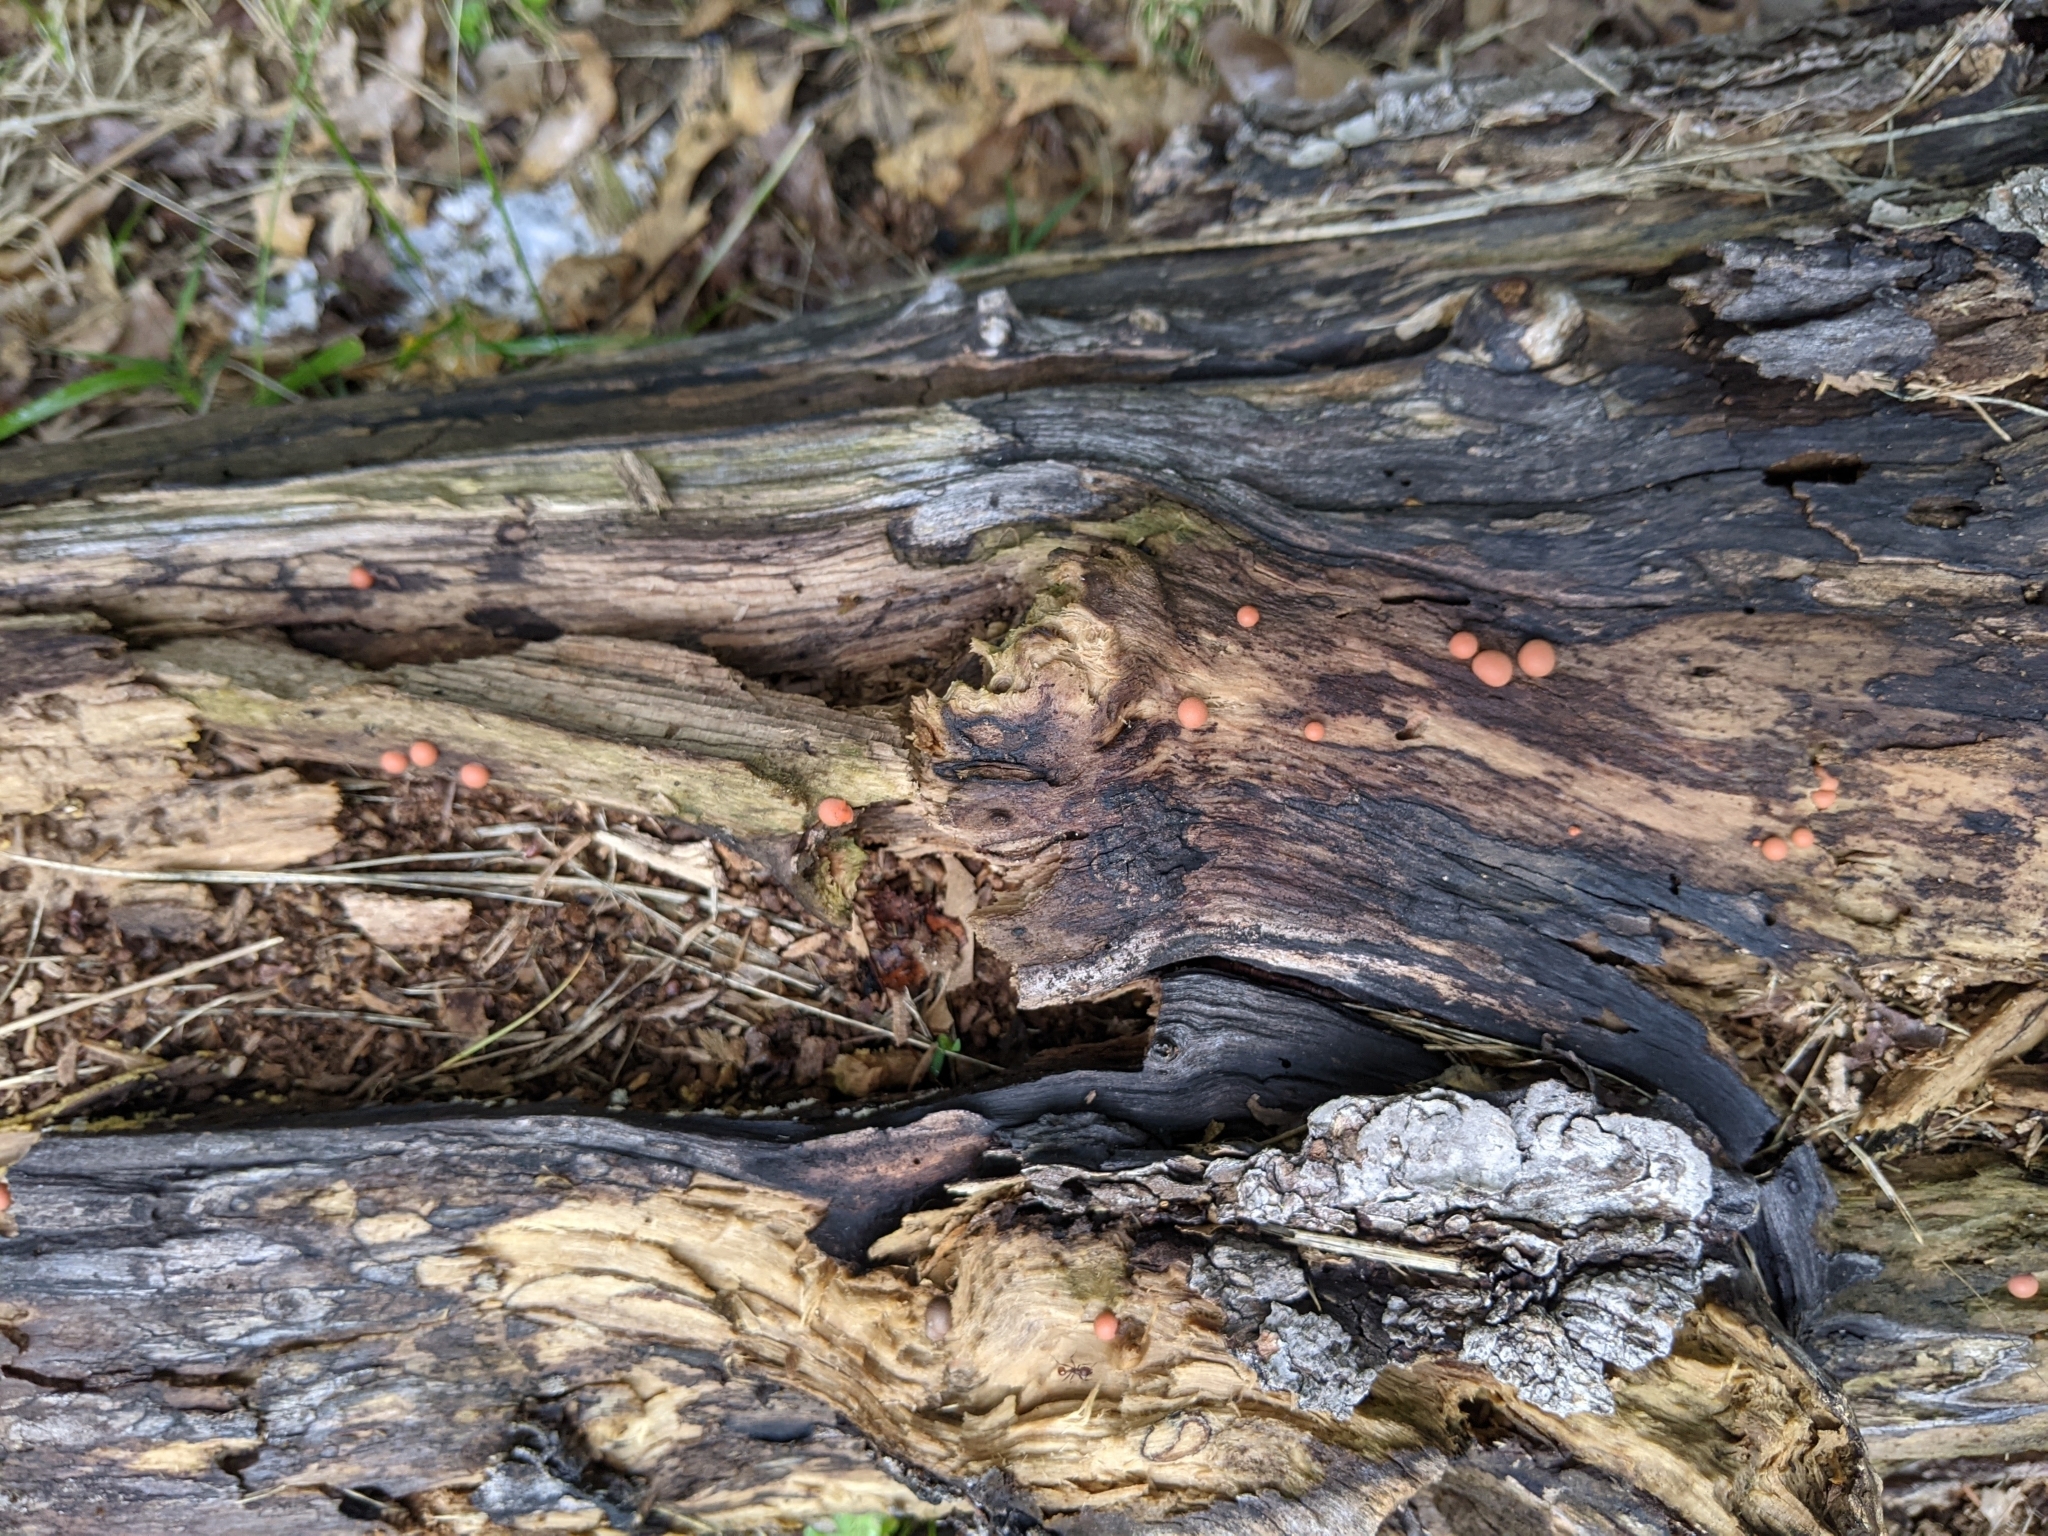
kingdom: Protozoa
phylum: Mycetozoa
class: Myxomycetes
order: Cribrariales
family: Tubiferaceae
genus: Lycogala
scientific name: Lycogala epidendrum
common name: Wolf's milk
